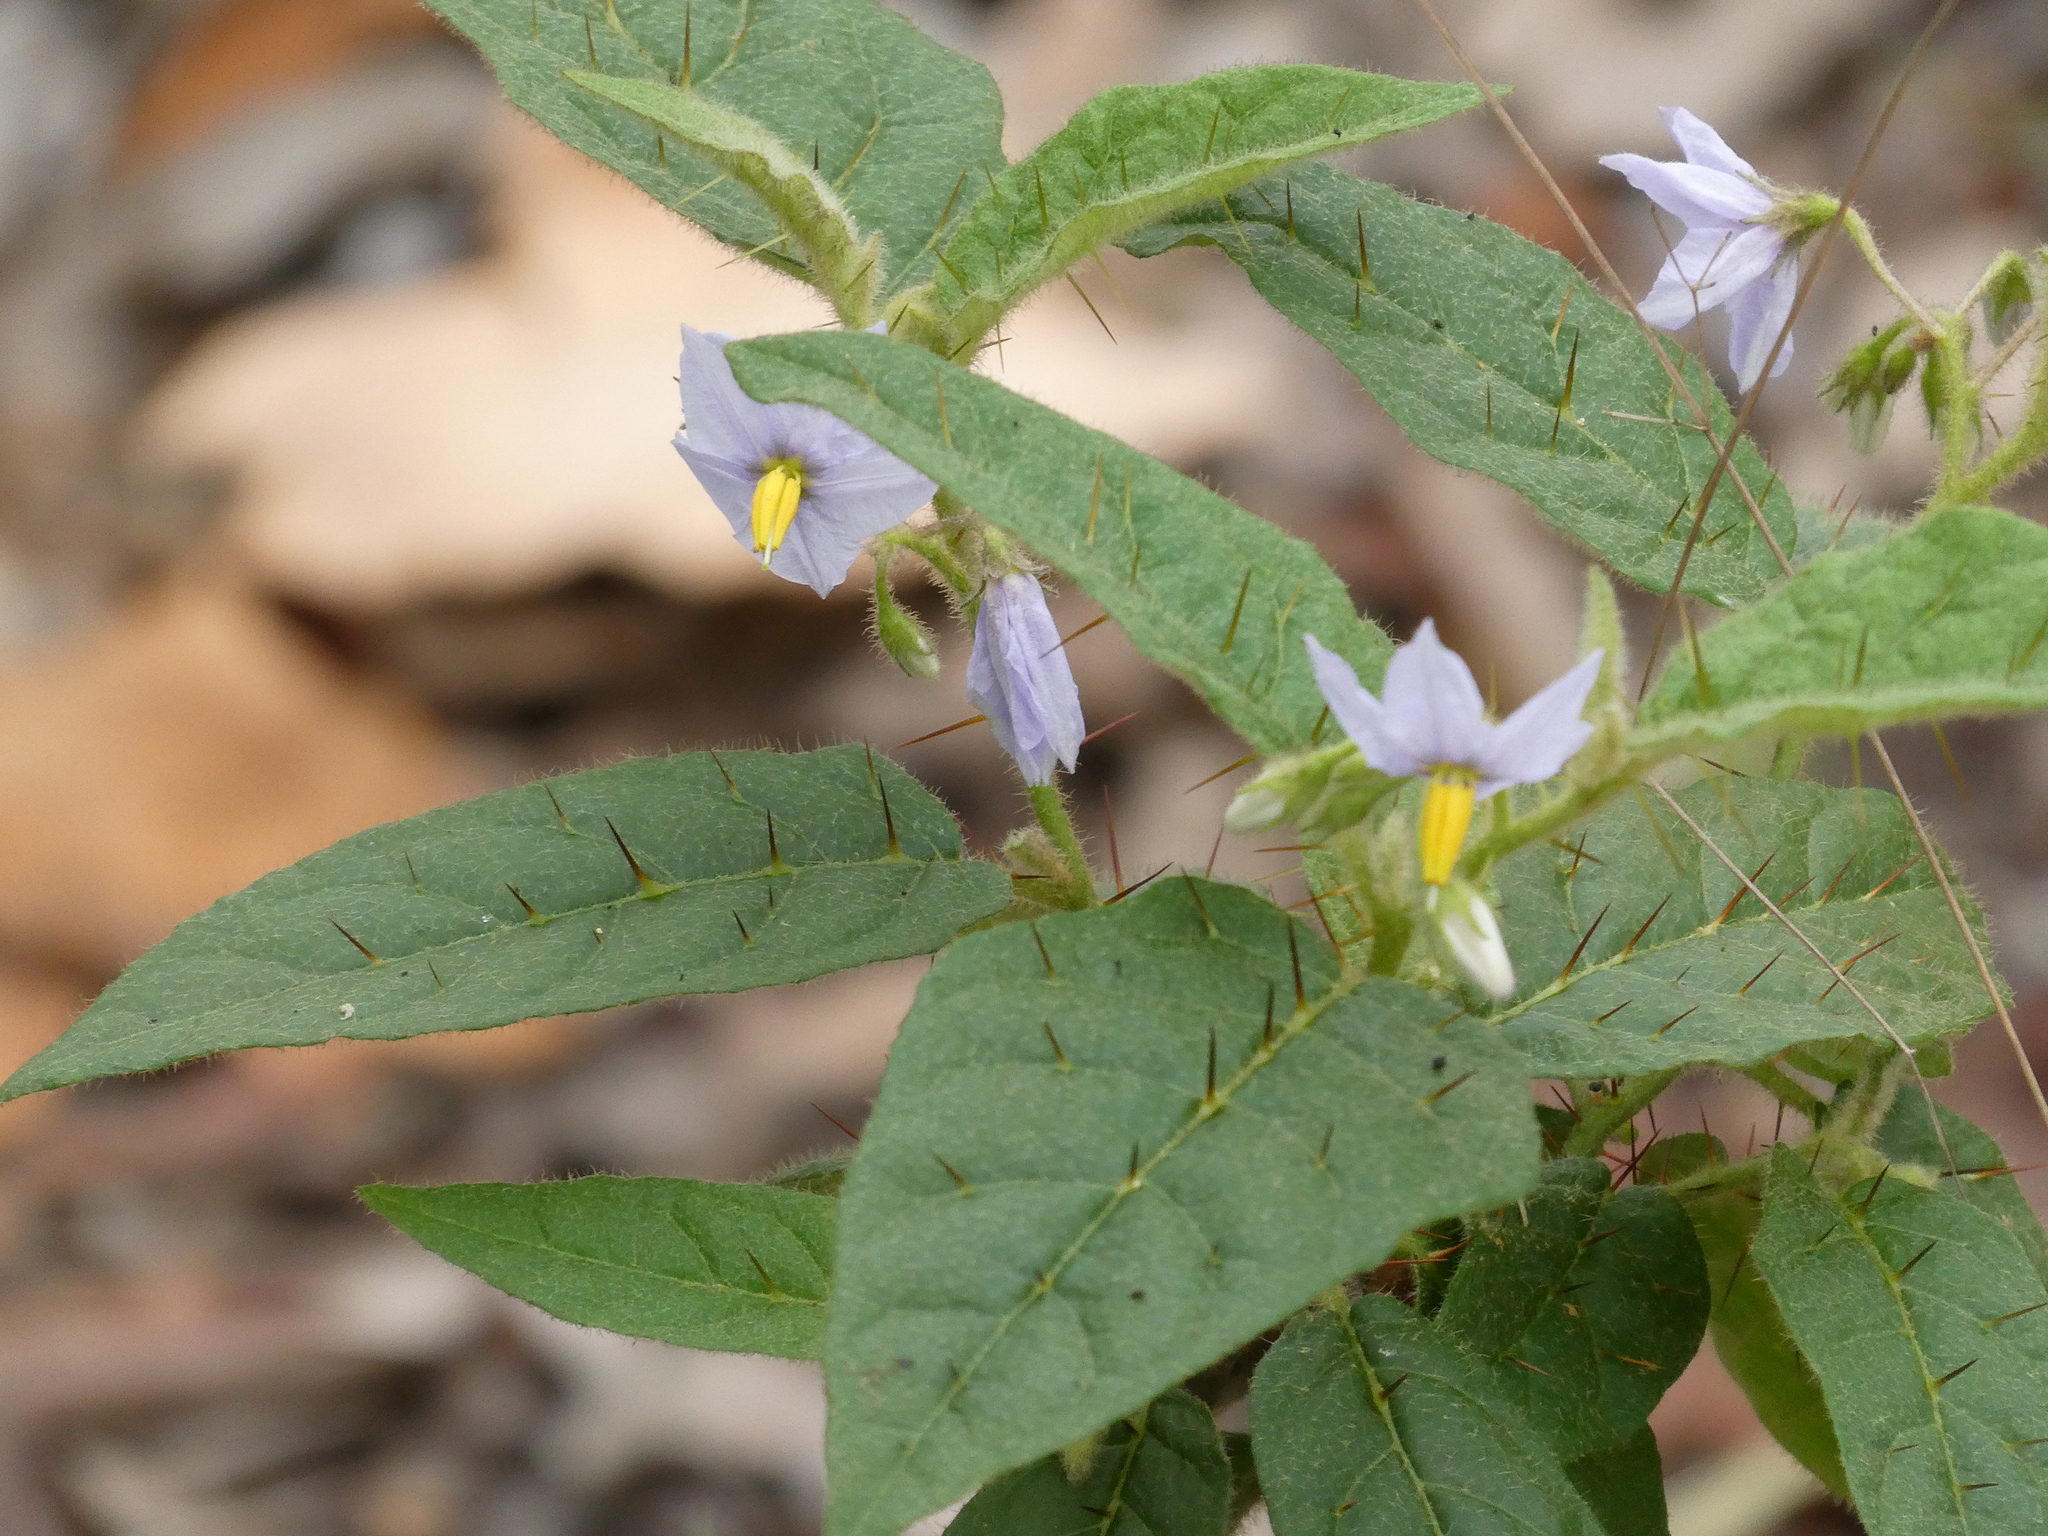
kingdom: Plantae
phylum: Tracheophyta
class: Magnoliopsida
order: Solanales
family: Solanaceae
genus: Solanum
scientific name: Solanum stelligerum
